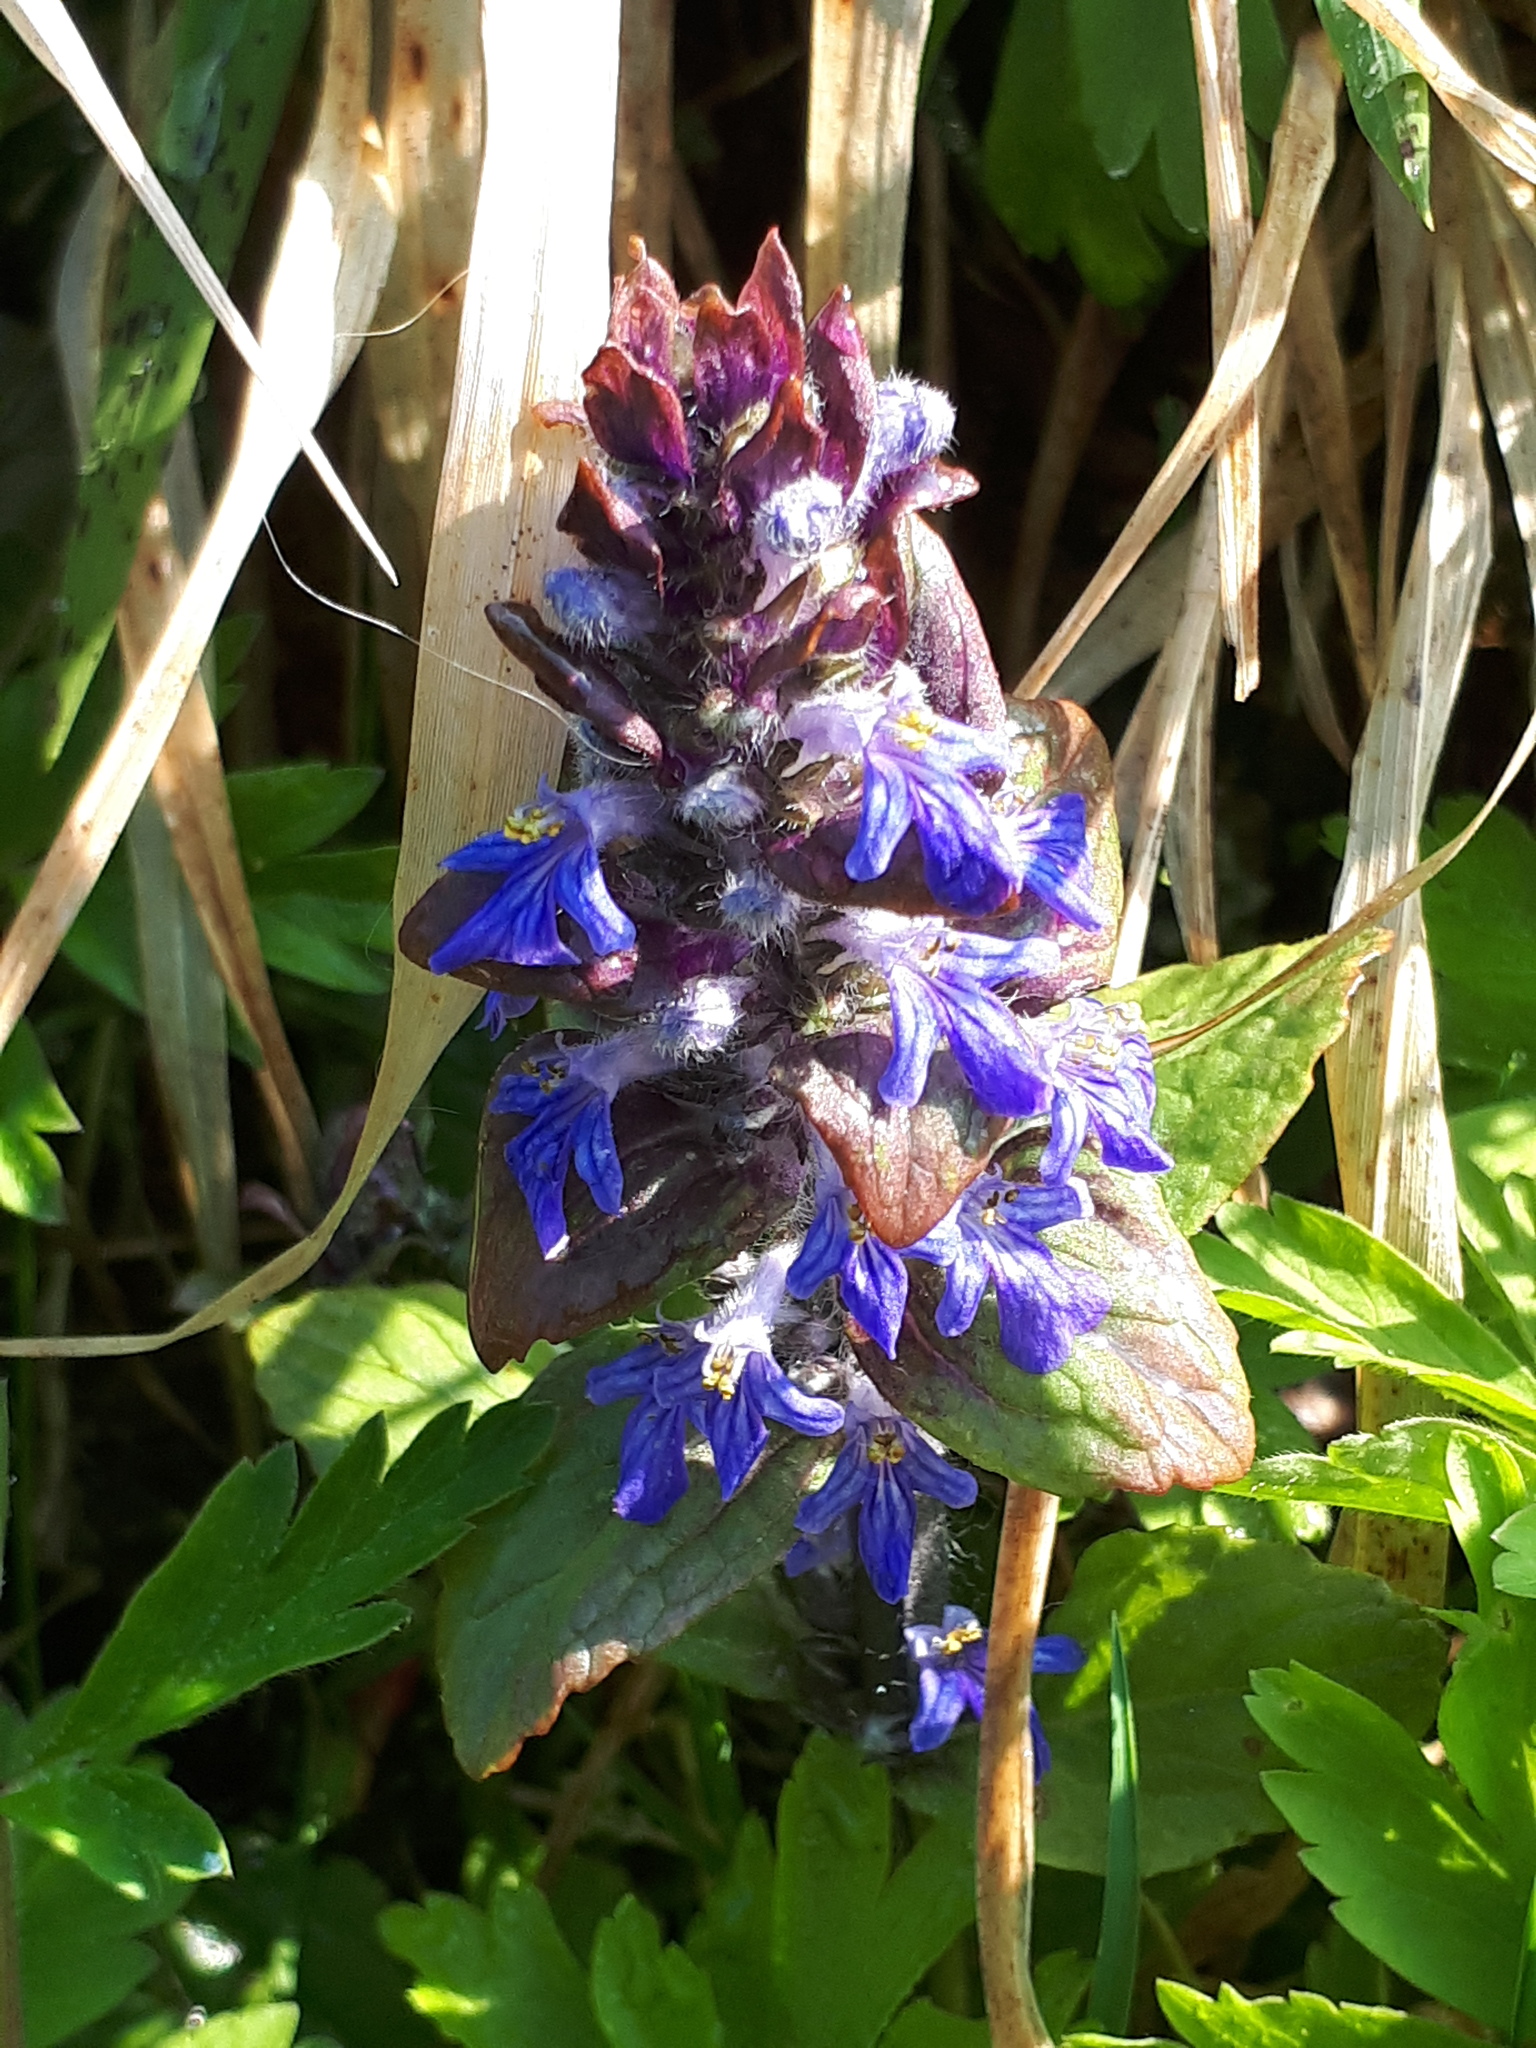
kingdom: Plantae
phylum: Tracheophyta
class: Magnoliopsida
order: Lamiales
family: Lamiaceae
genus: Ajuga
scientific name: Ajuga reptans
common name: Bugle
